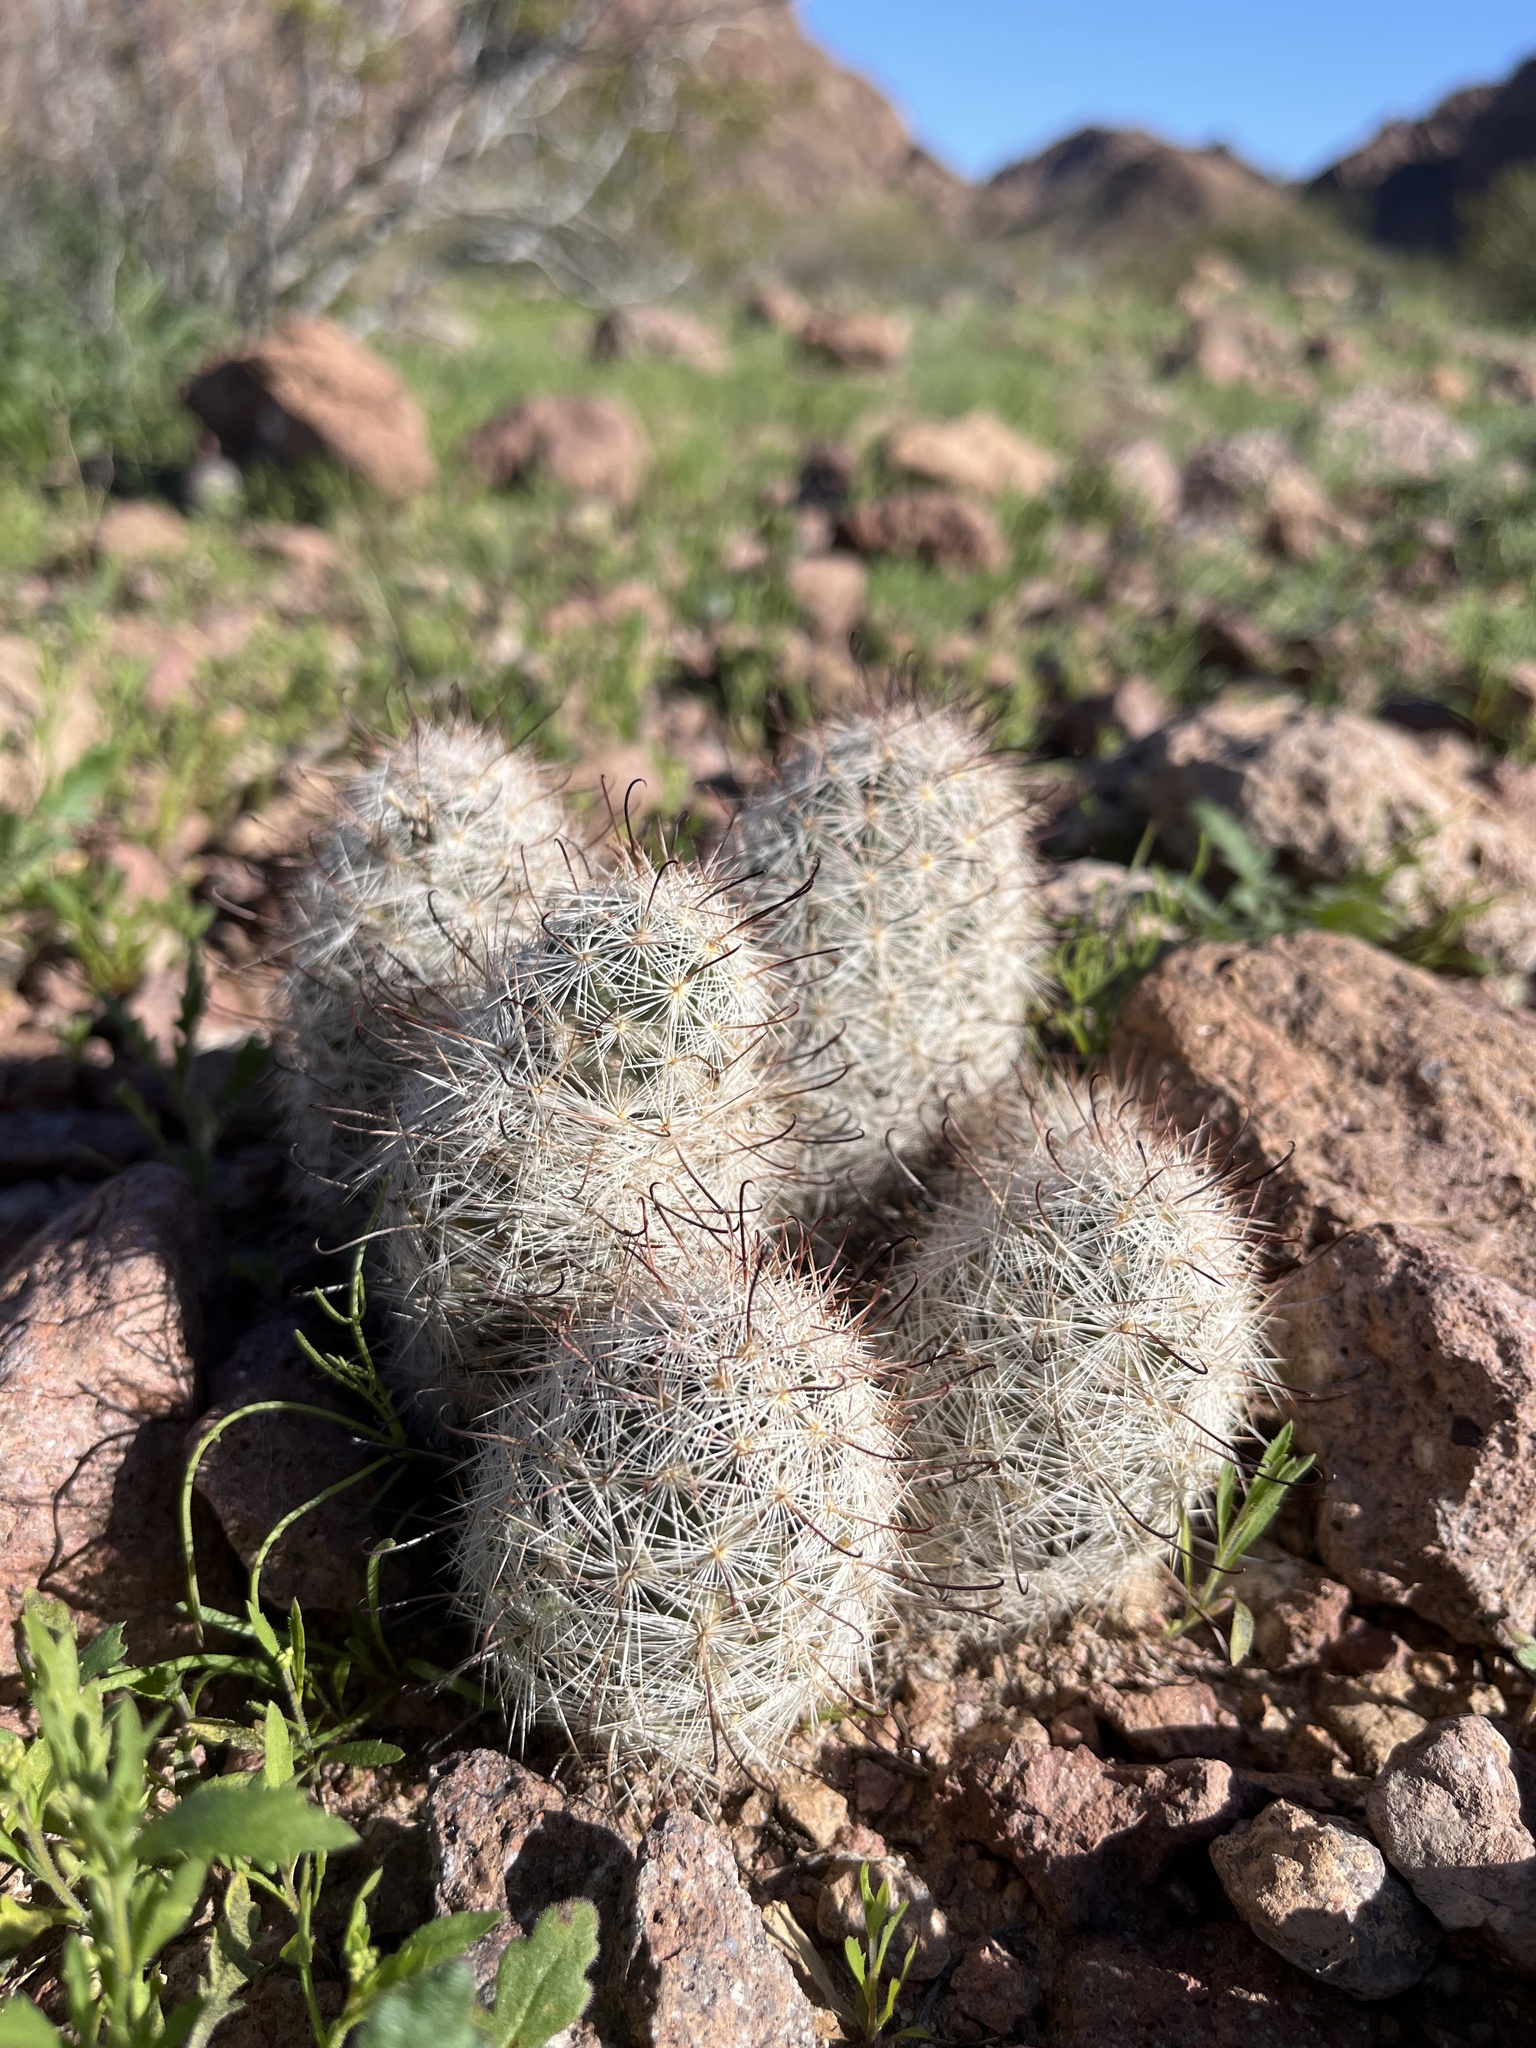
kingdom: Plantae
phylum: Tracheophyta
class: Magnoliopsida
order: Caryophyllales
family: Cactaceae
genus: Cochemiea
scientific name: Cochemiea grahamii
